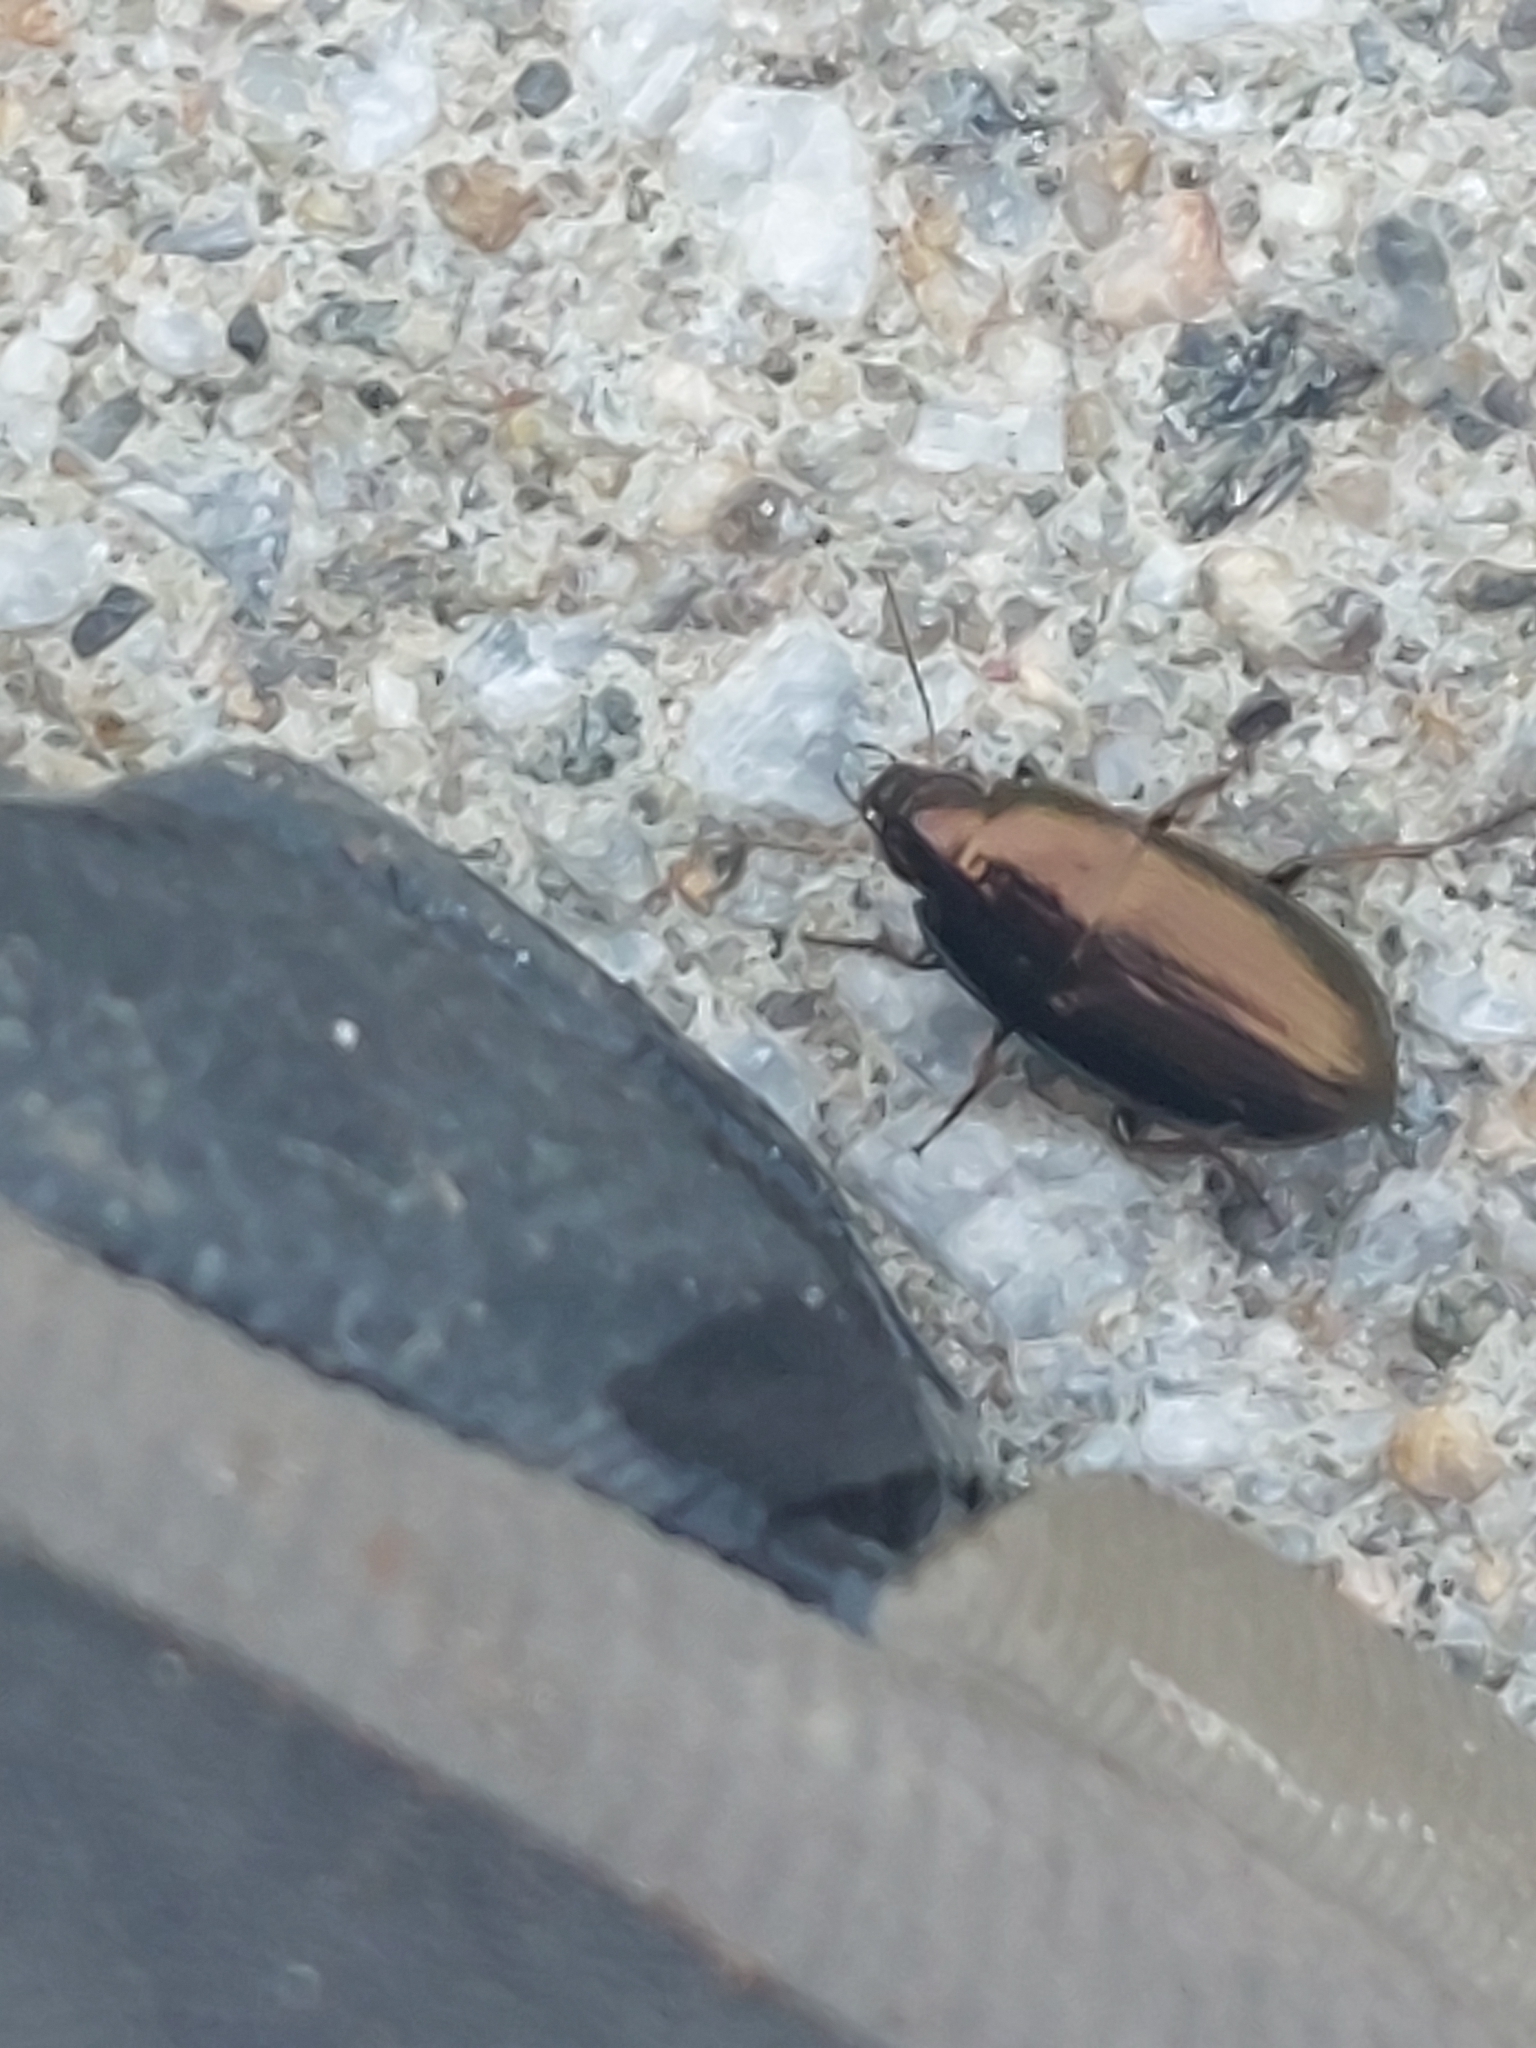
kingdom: Animalia
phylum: Arthropoda
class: Insecta
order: Coleoptera
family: Carabidae
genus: Amara
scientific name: Amara aenea
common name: Common sun beetle
